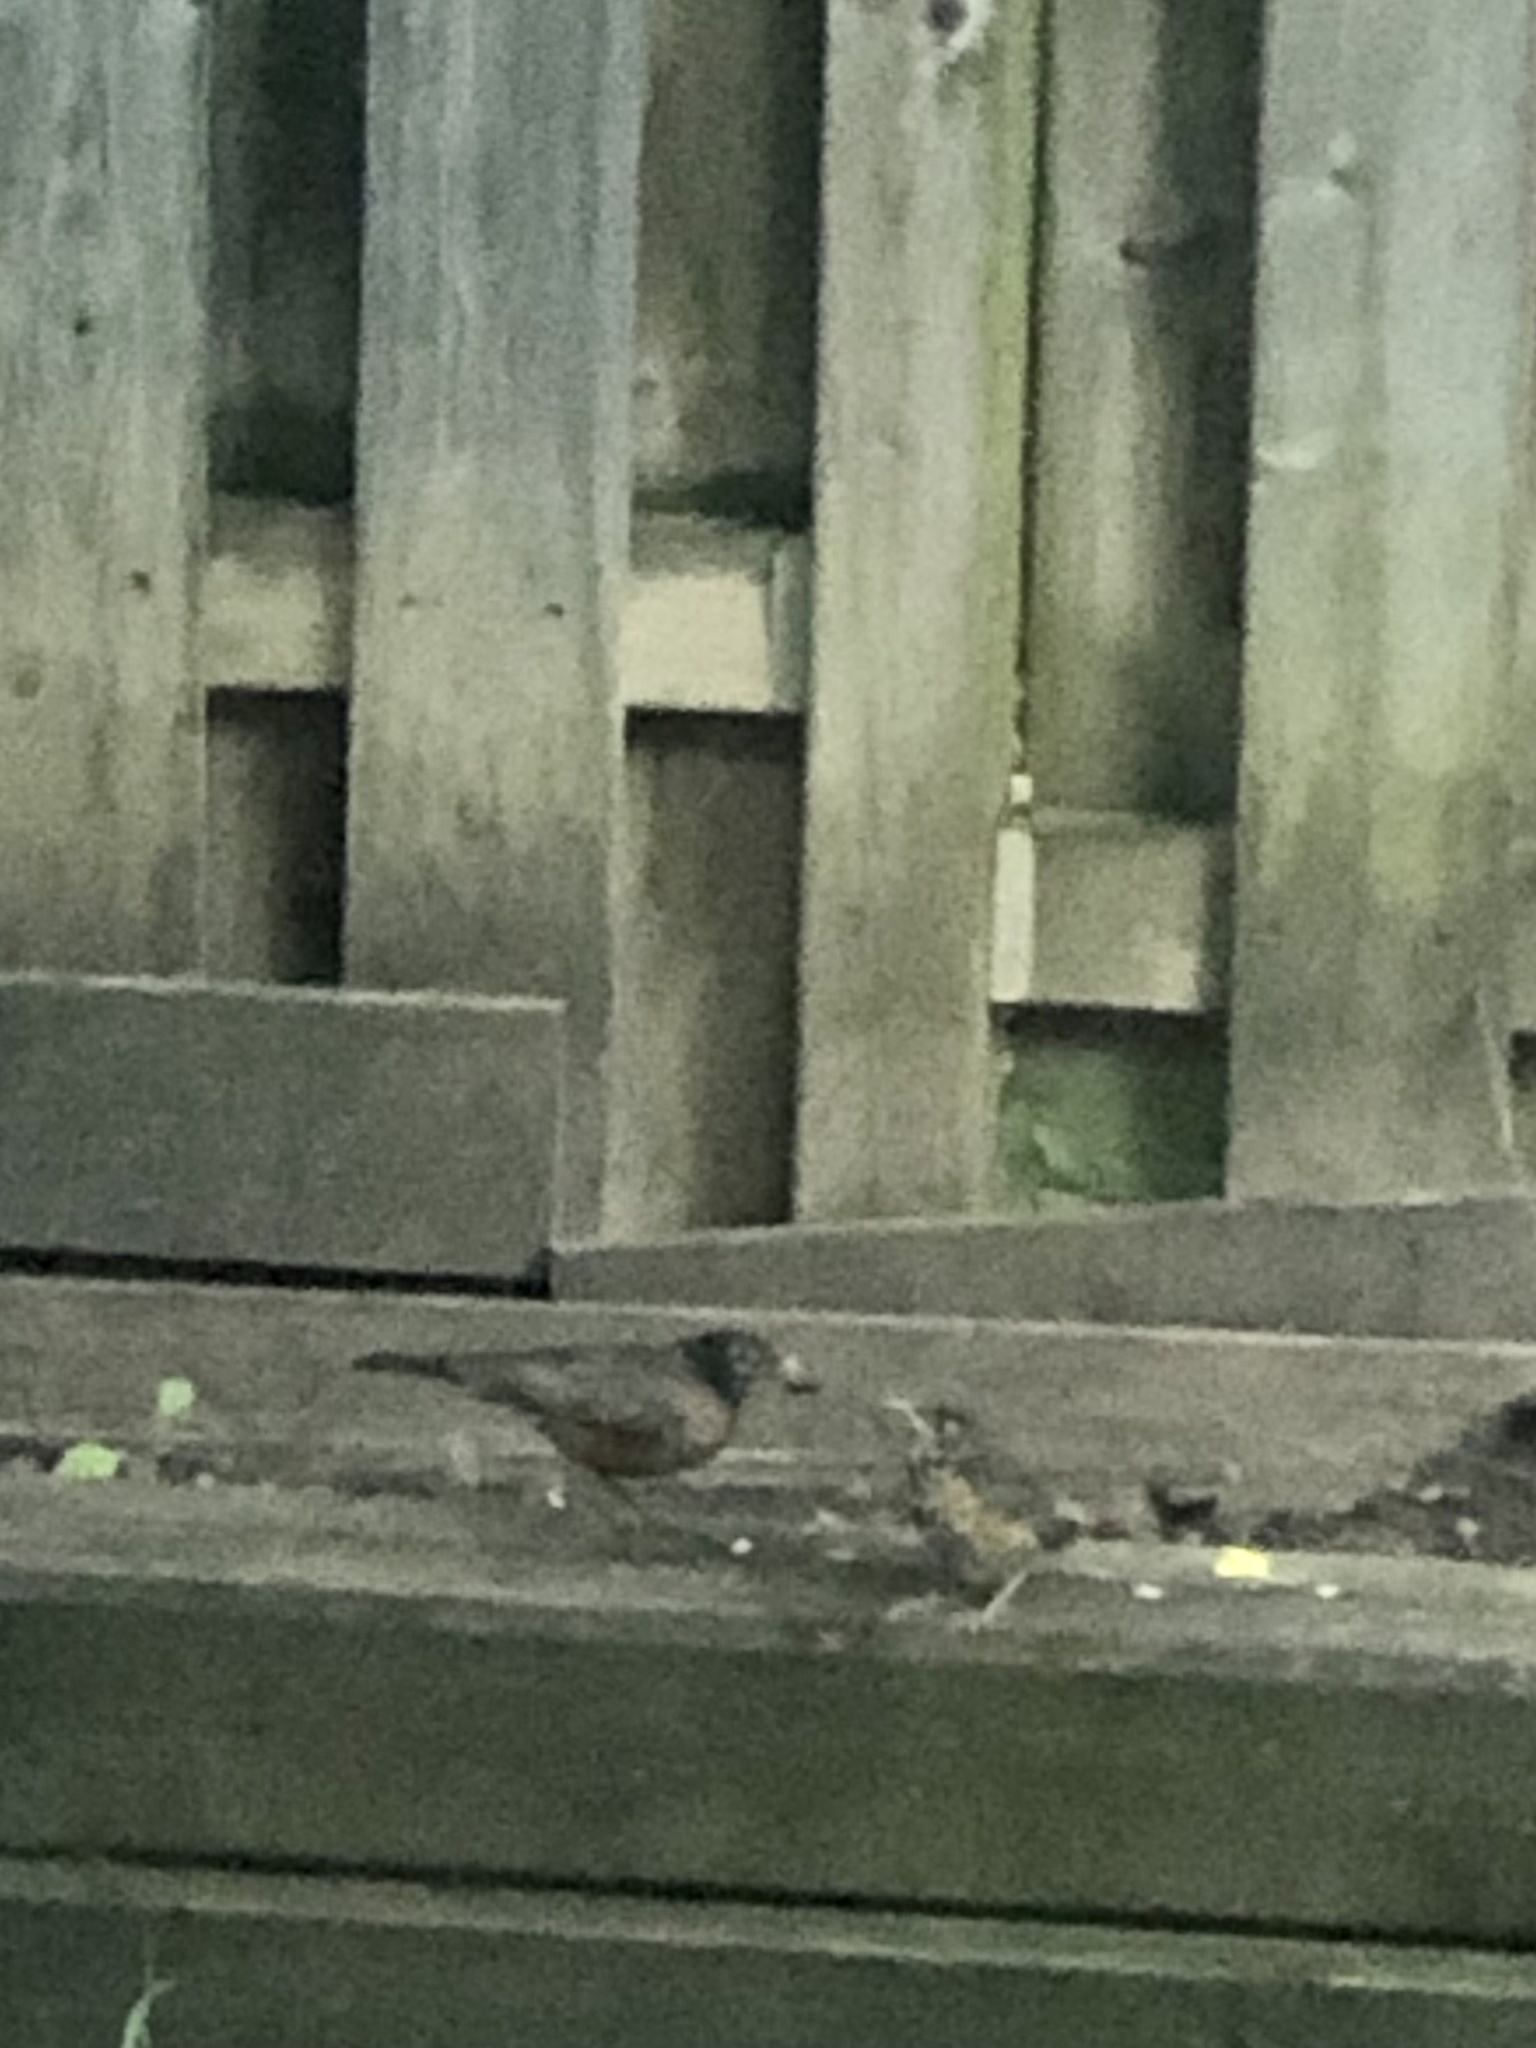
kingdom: Animalia
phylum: Chordata
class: Aves
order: Passeriformes
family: Turdidae
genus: Turdus
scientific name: Turdus migratorius
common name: American robin
